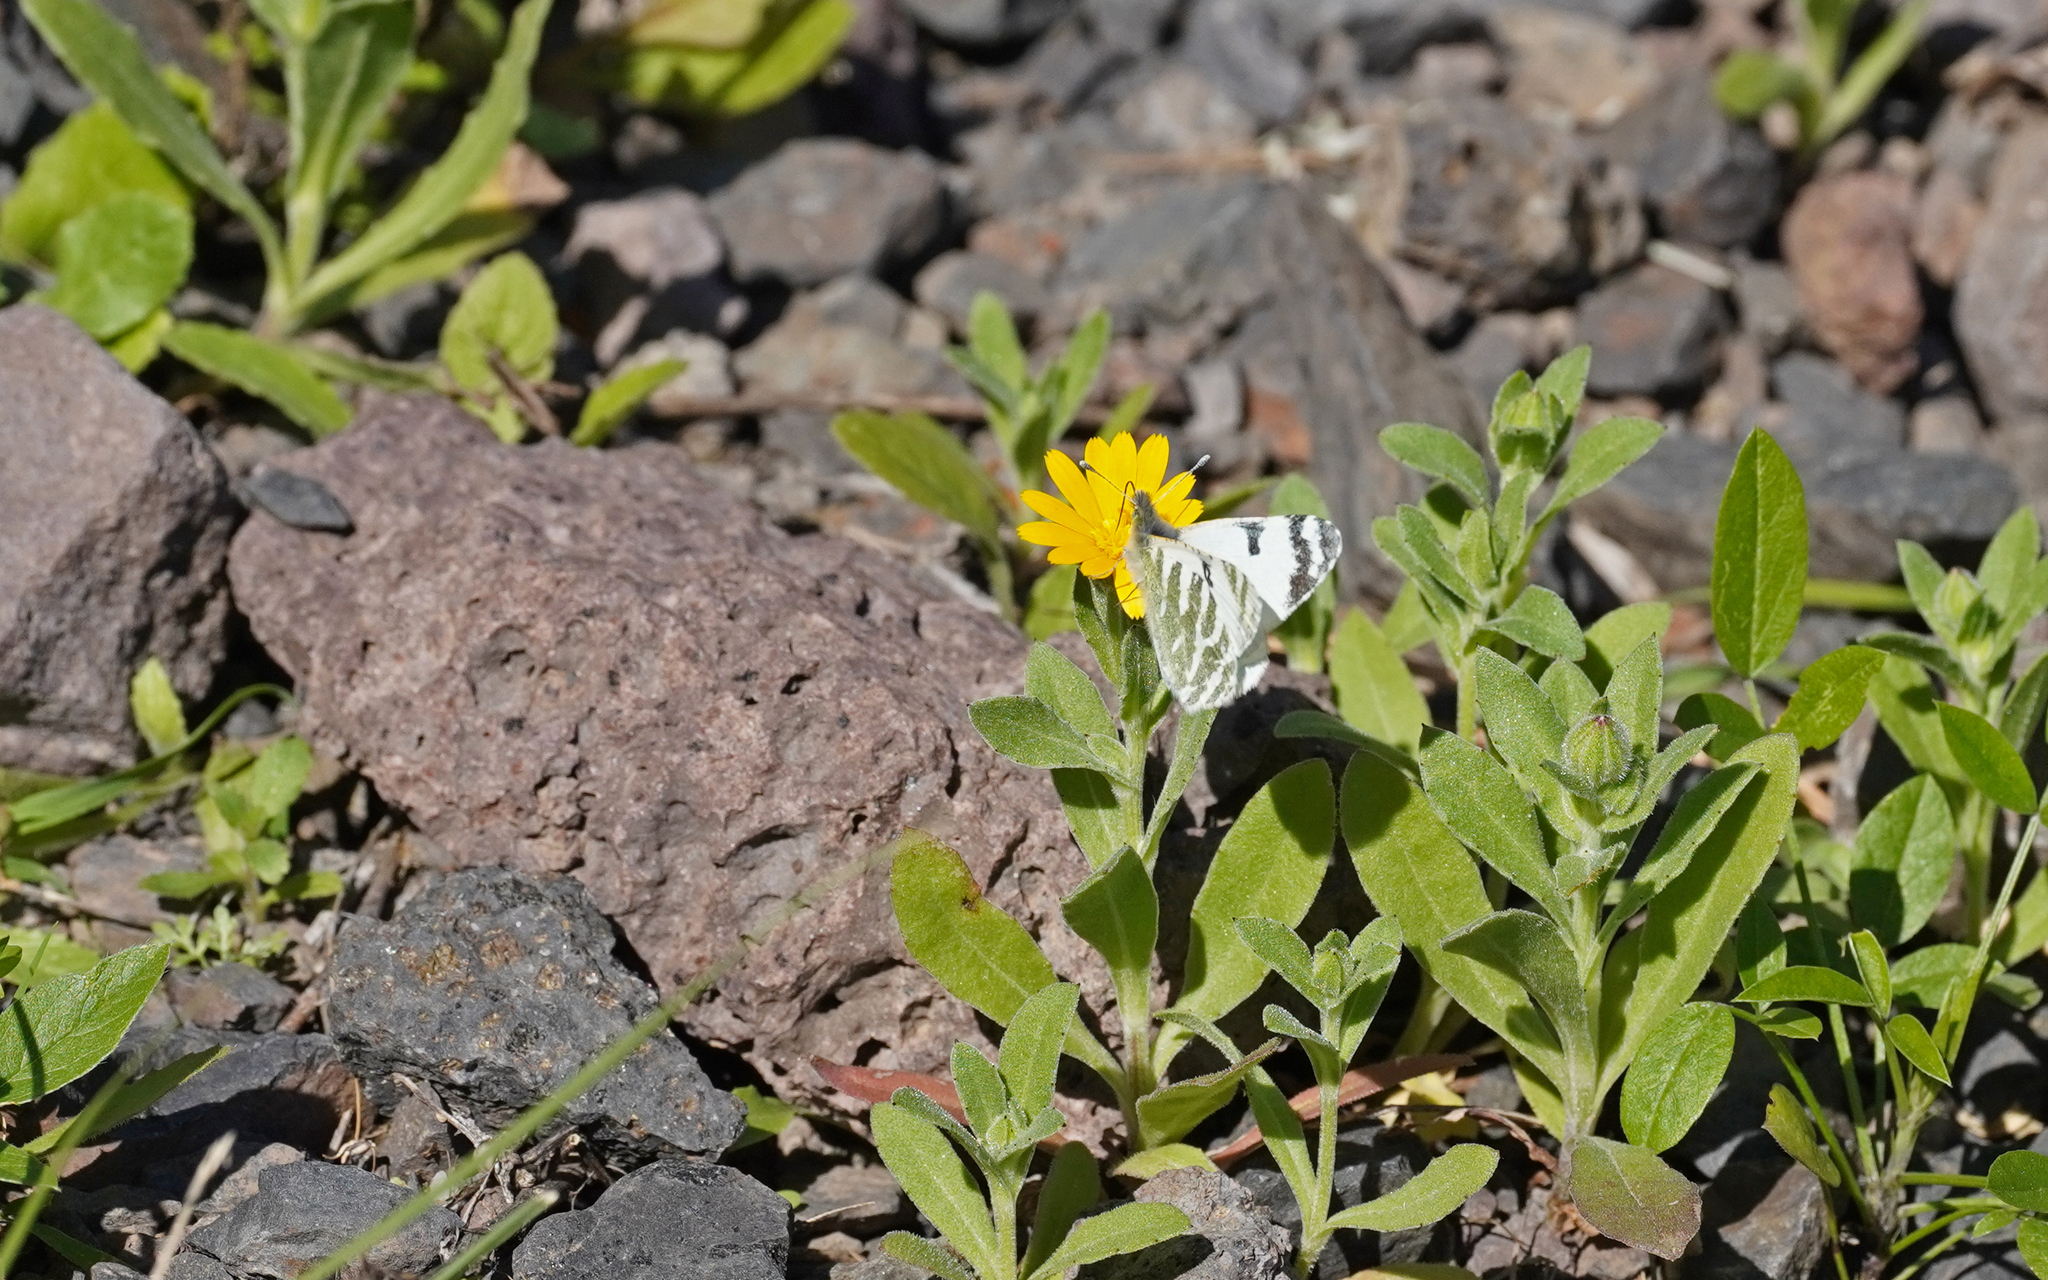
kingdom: Animalia
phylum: Arthropoda
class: Insecta
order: Lepidoptera
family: Pieridae
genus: Euchloe
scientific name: Euchloe eversi
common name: Tenerife green-striped white
